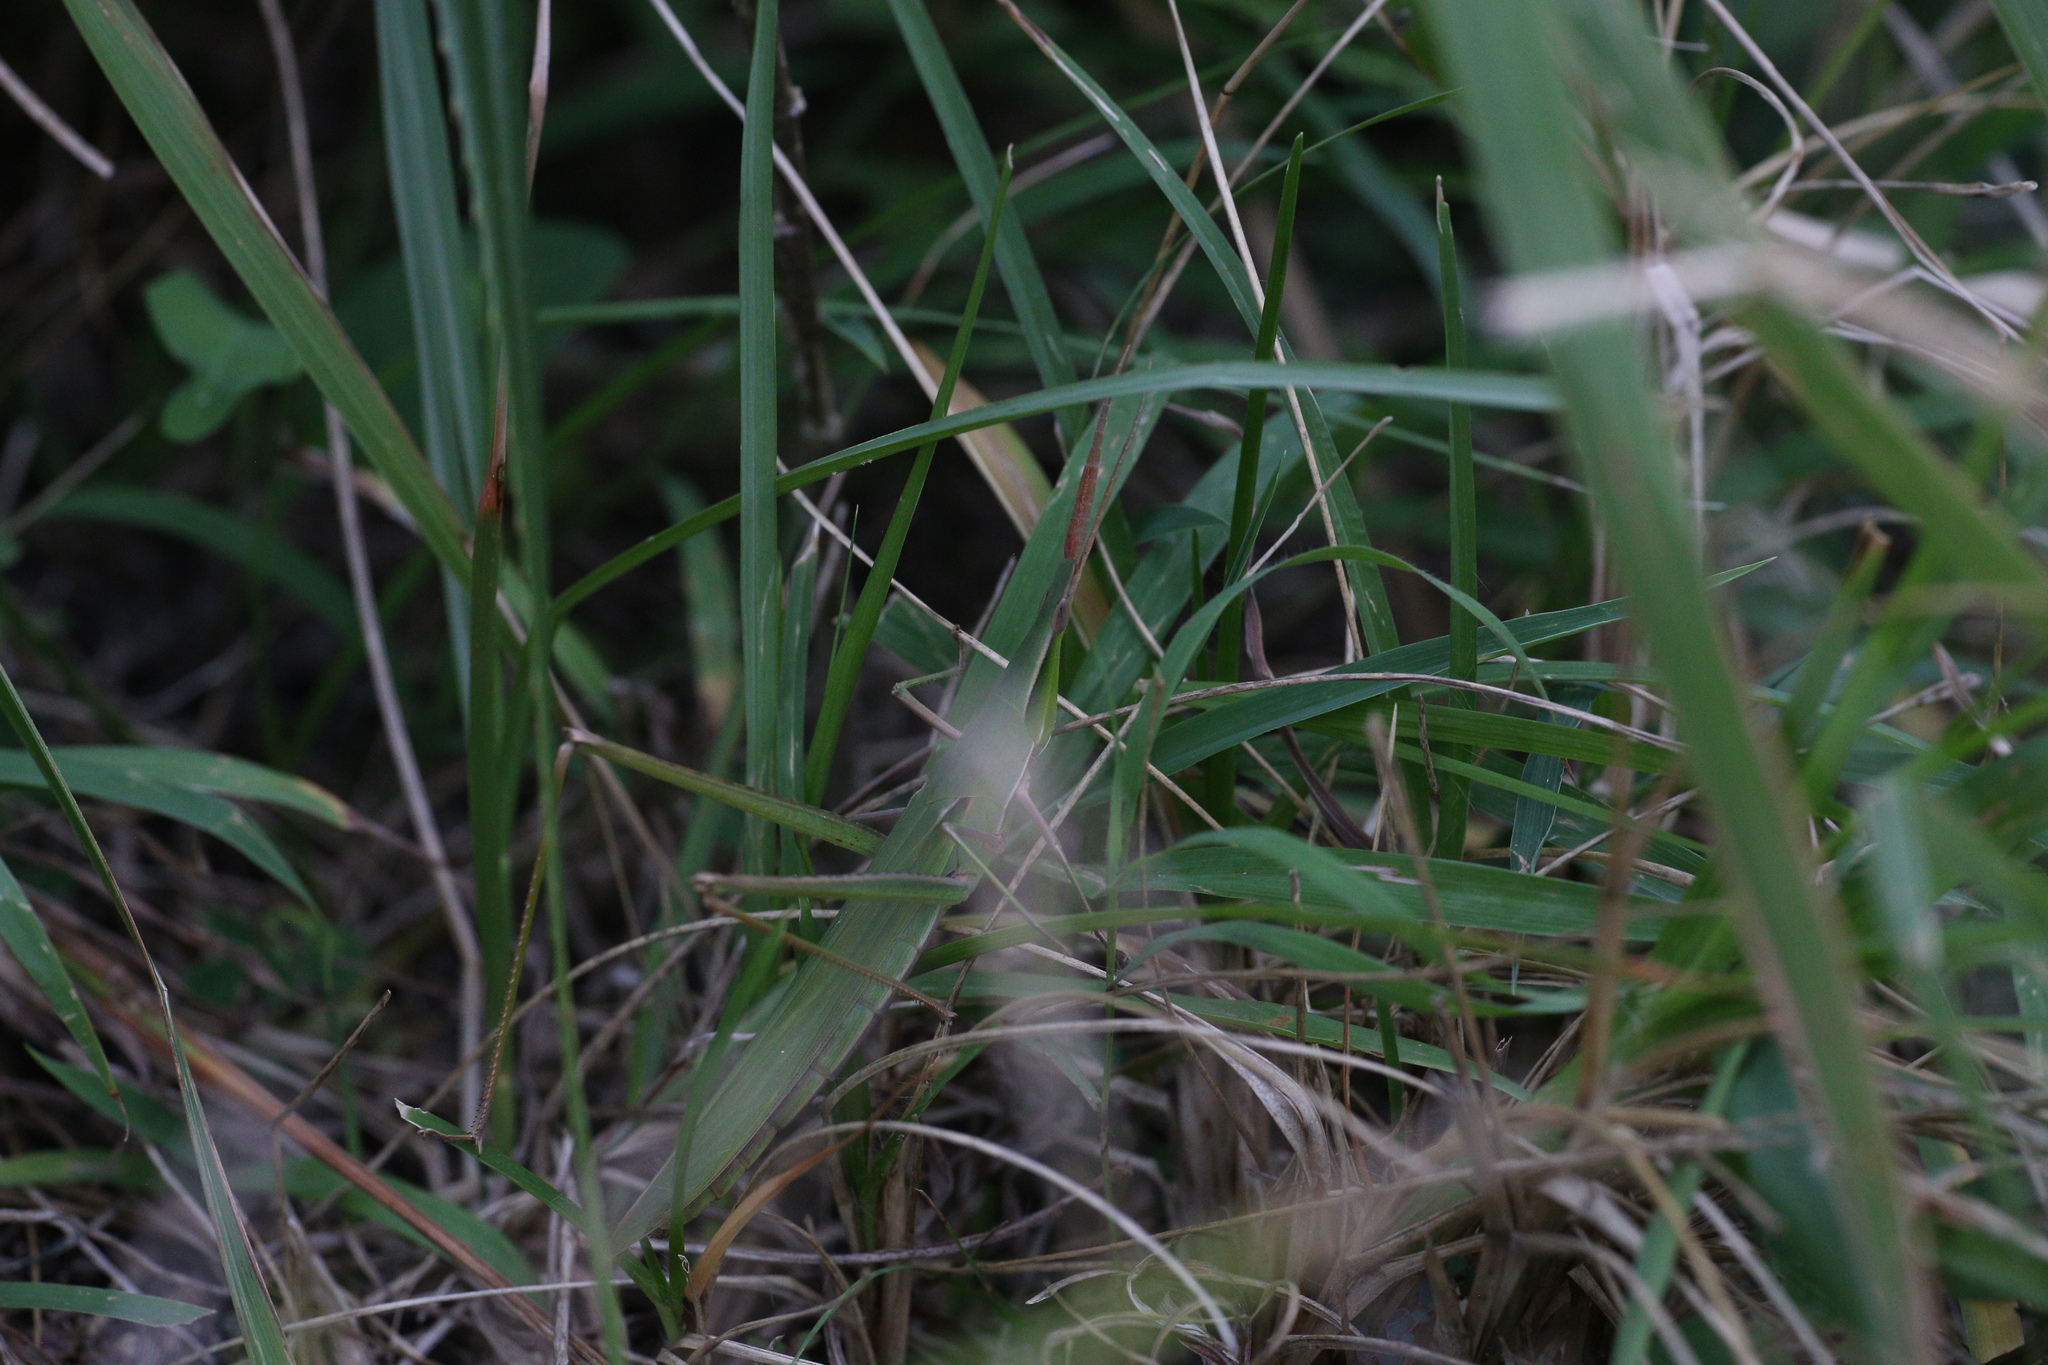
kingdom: Animalia
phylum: Arthropoda
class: Insecta
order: Orthoptera
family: Acrididae
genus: Acrida
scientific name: Acrida cinerea
